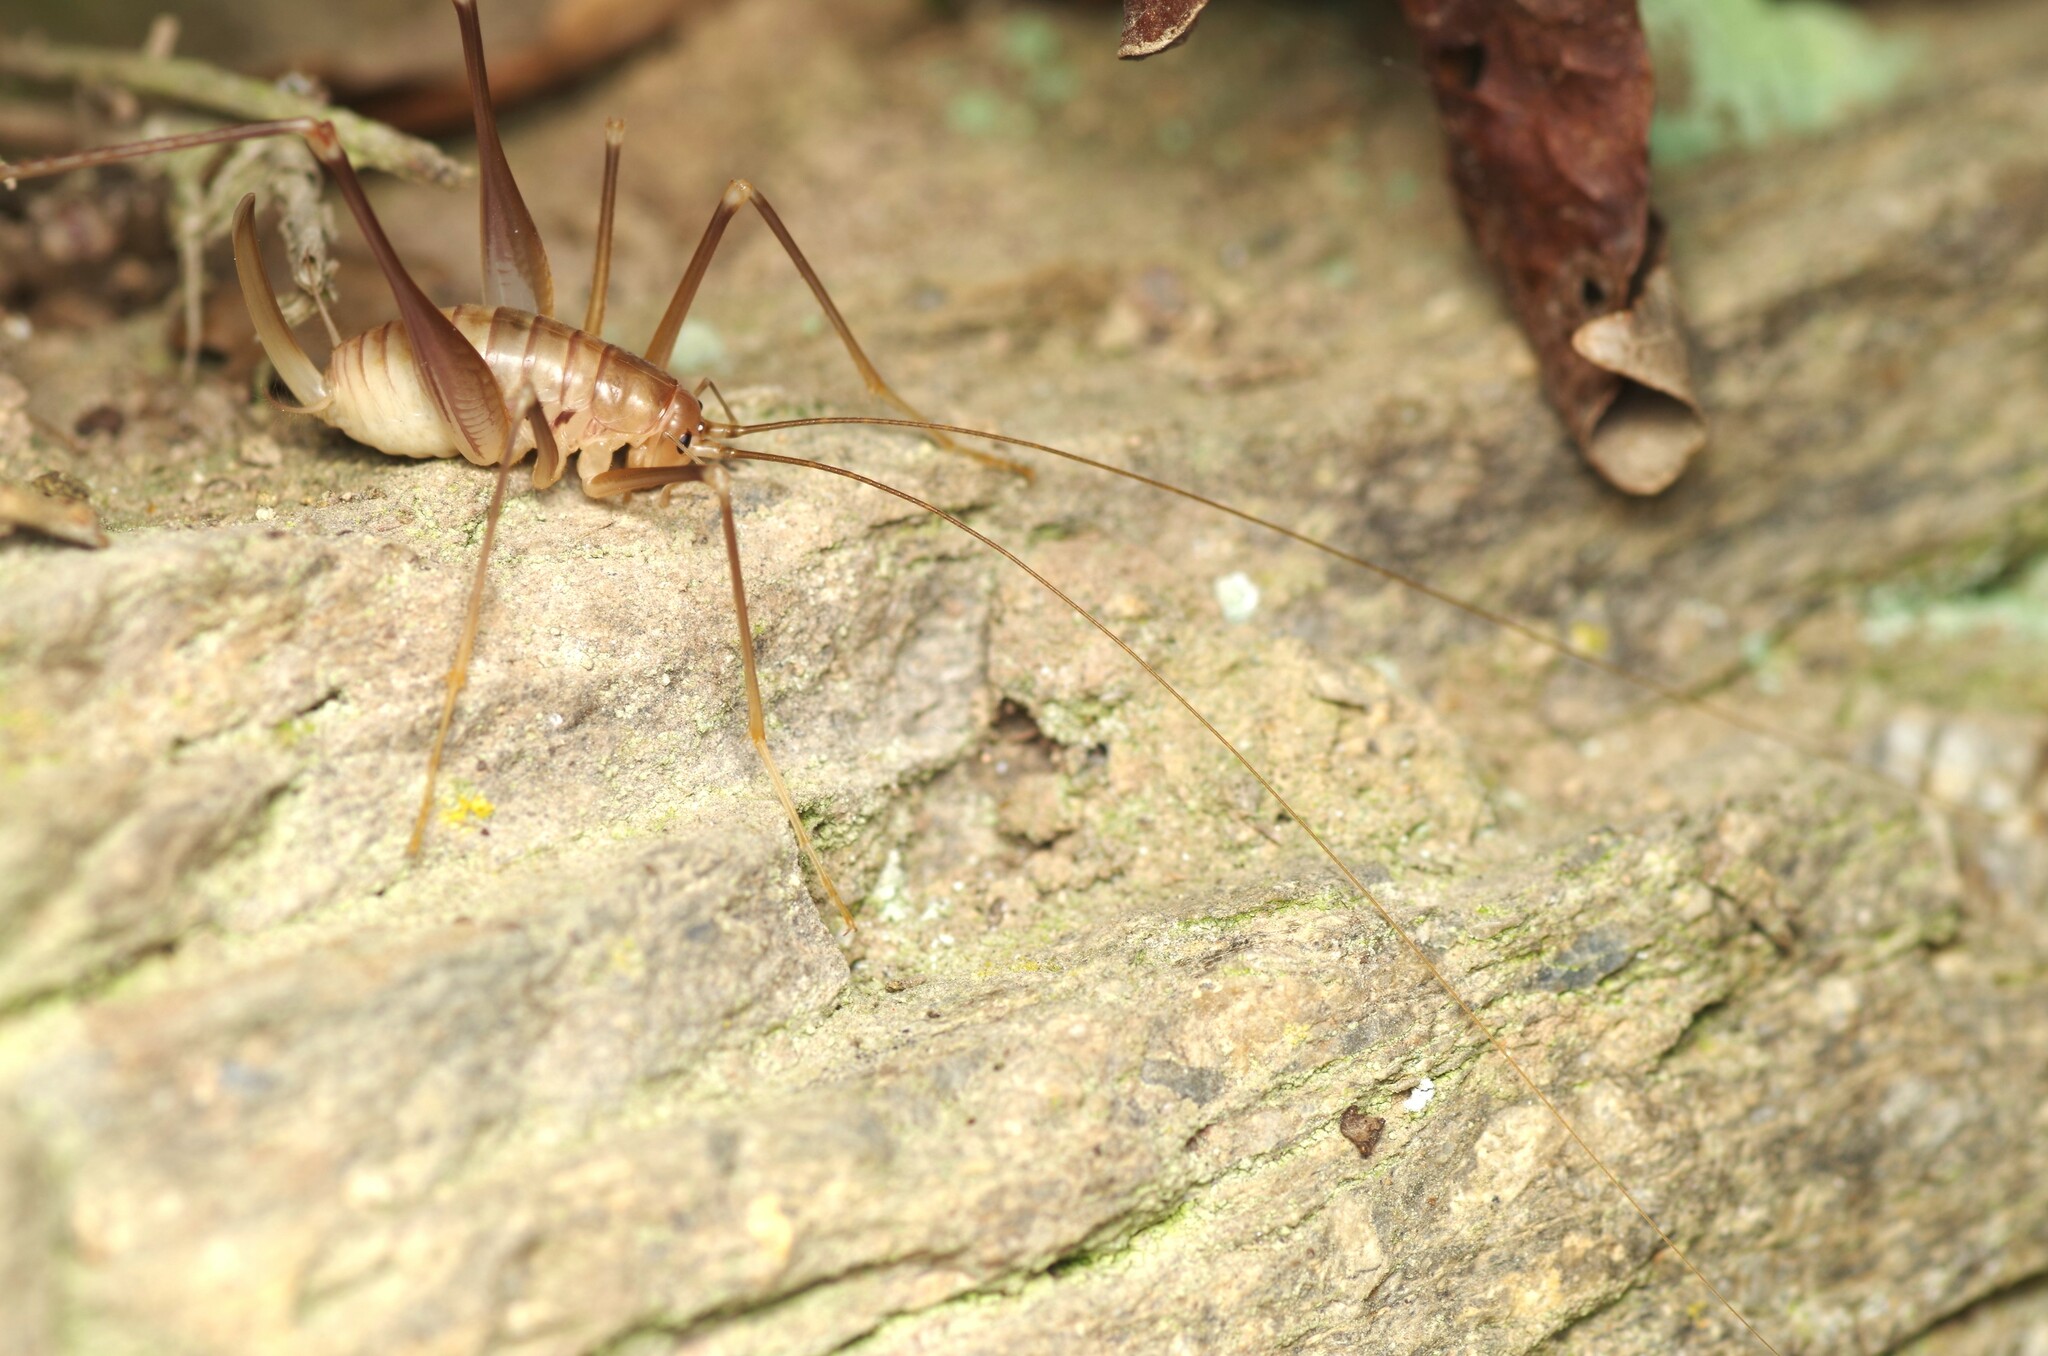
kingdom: Animalia
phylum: Arthropoda
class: Insecta
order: Orthoptera
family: Rhaphidophoridae
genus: Dolichopoda
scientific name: Dolichopoda linderii
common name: Languedoc cave-cricket
